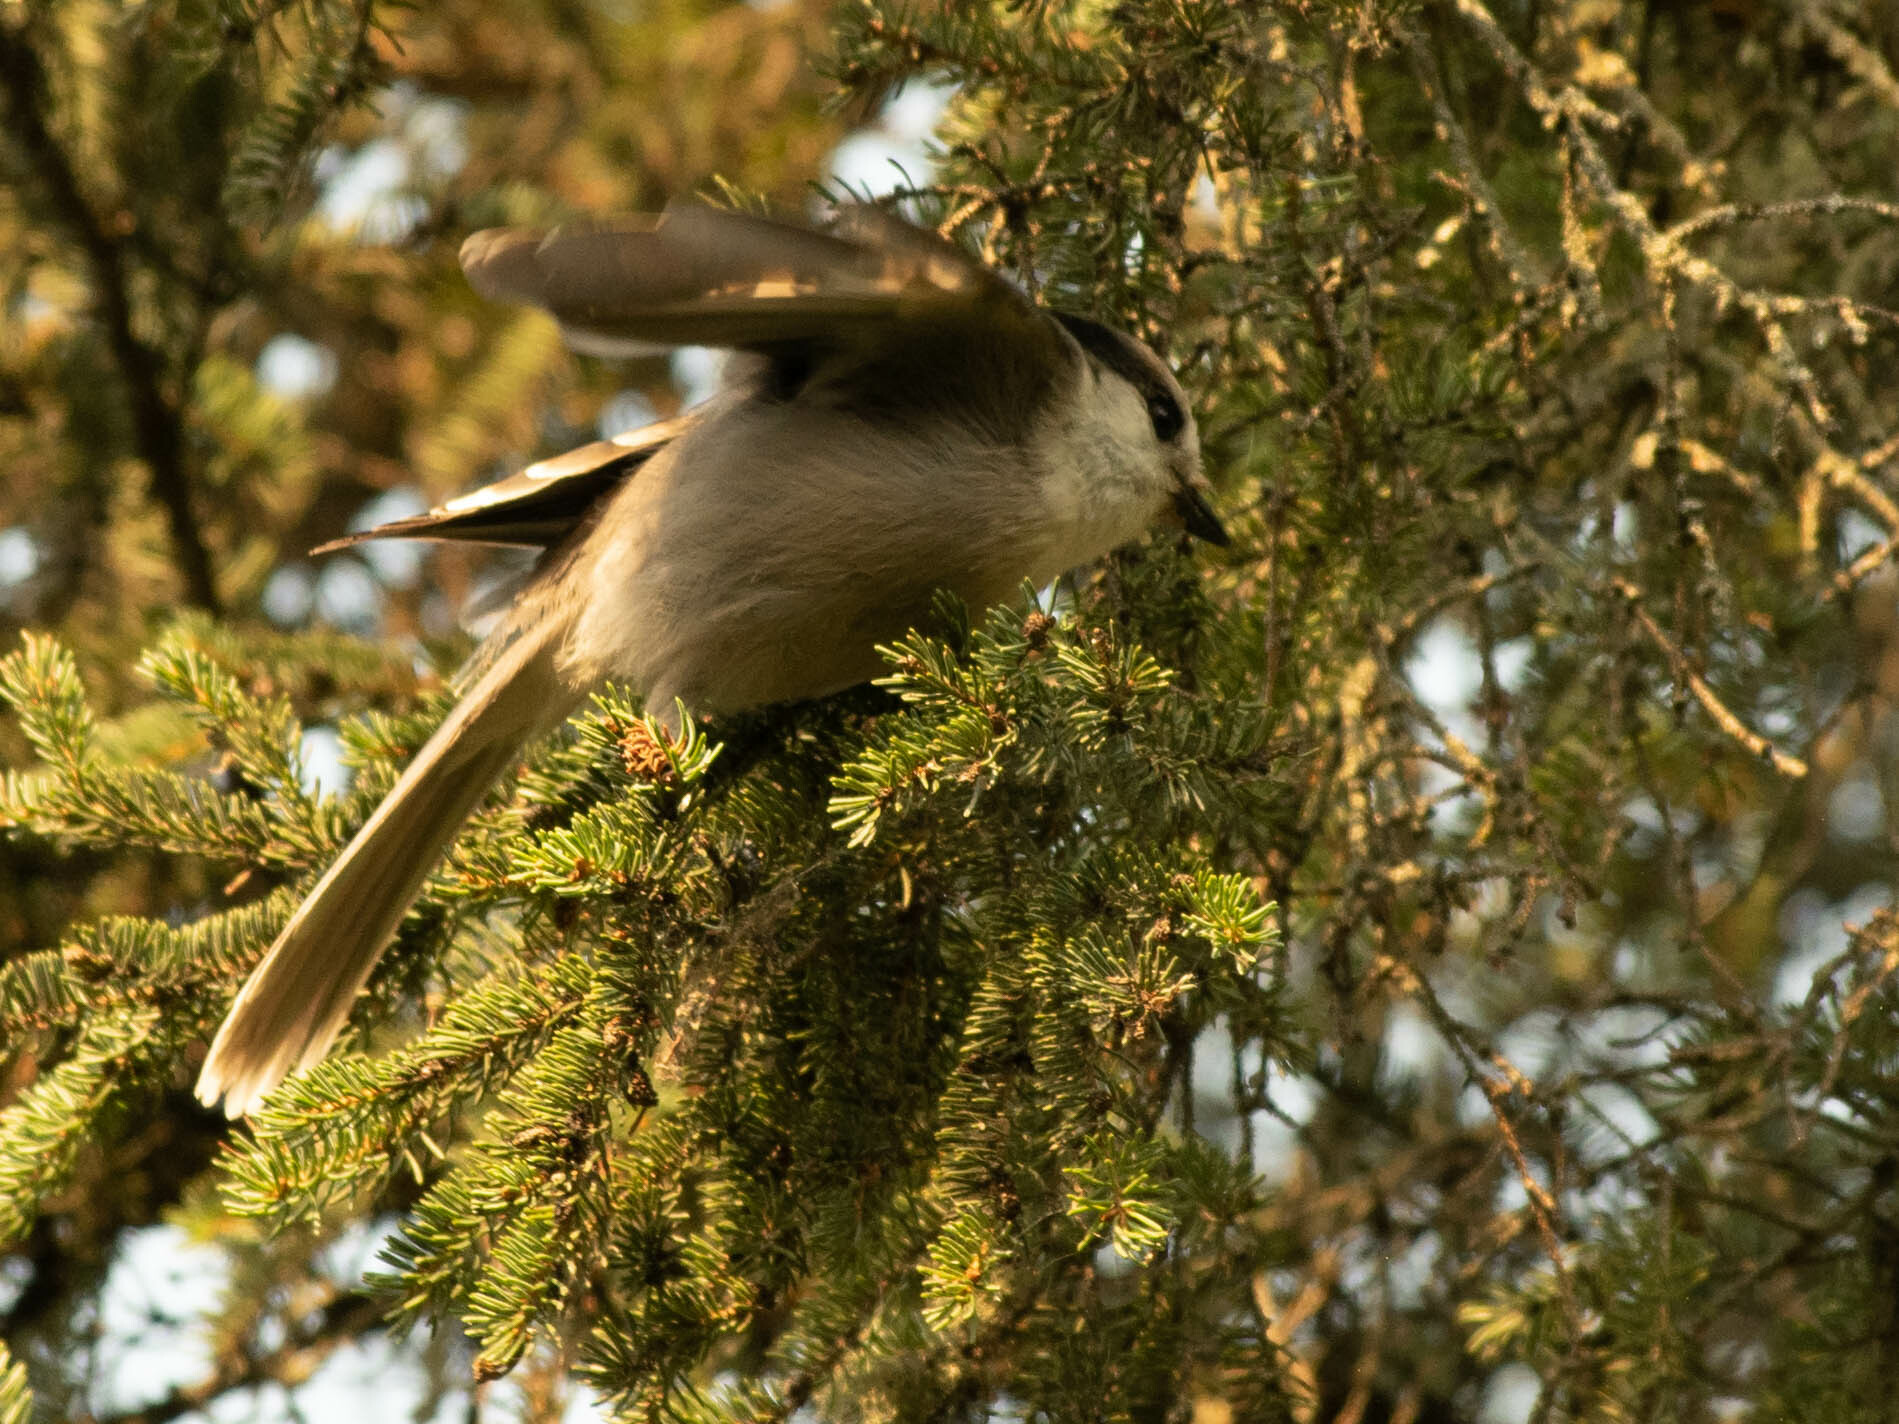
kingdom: Animalia
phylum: Chordata
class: Aves
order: Passeriformes
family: Corvidae
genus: Perisoreus
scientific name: Perisoreus canadensis
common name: Gray jay
